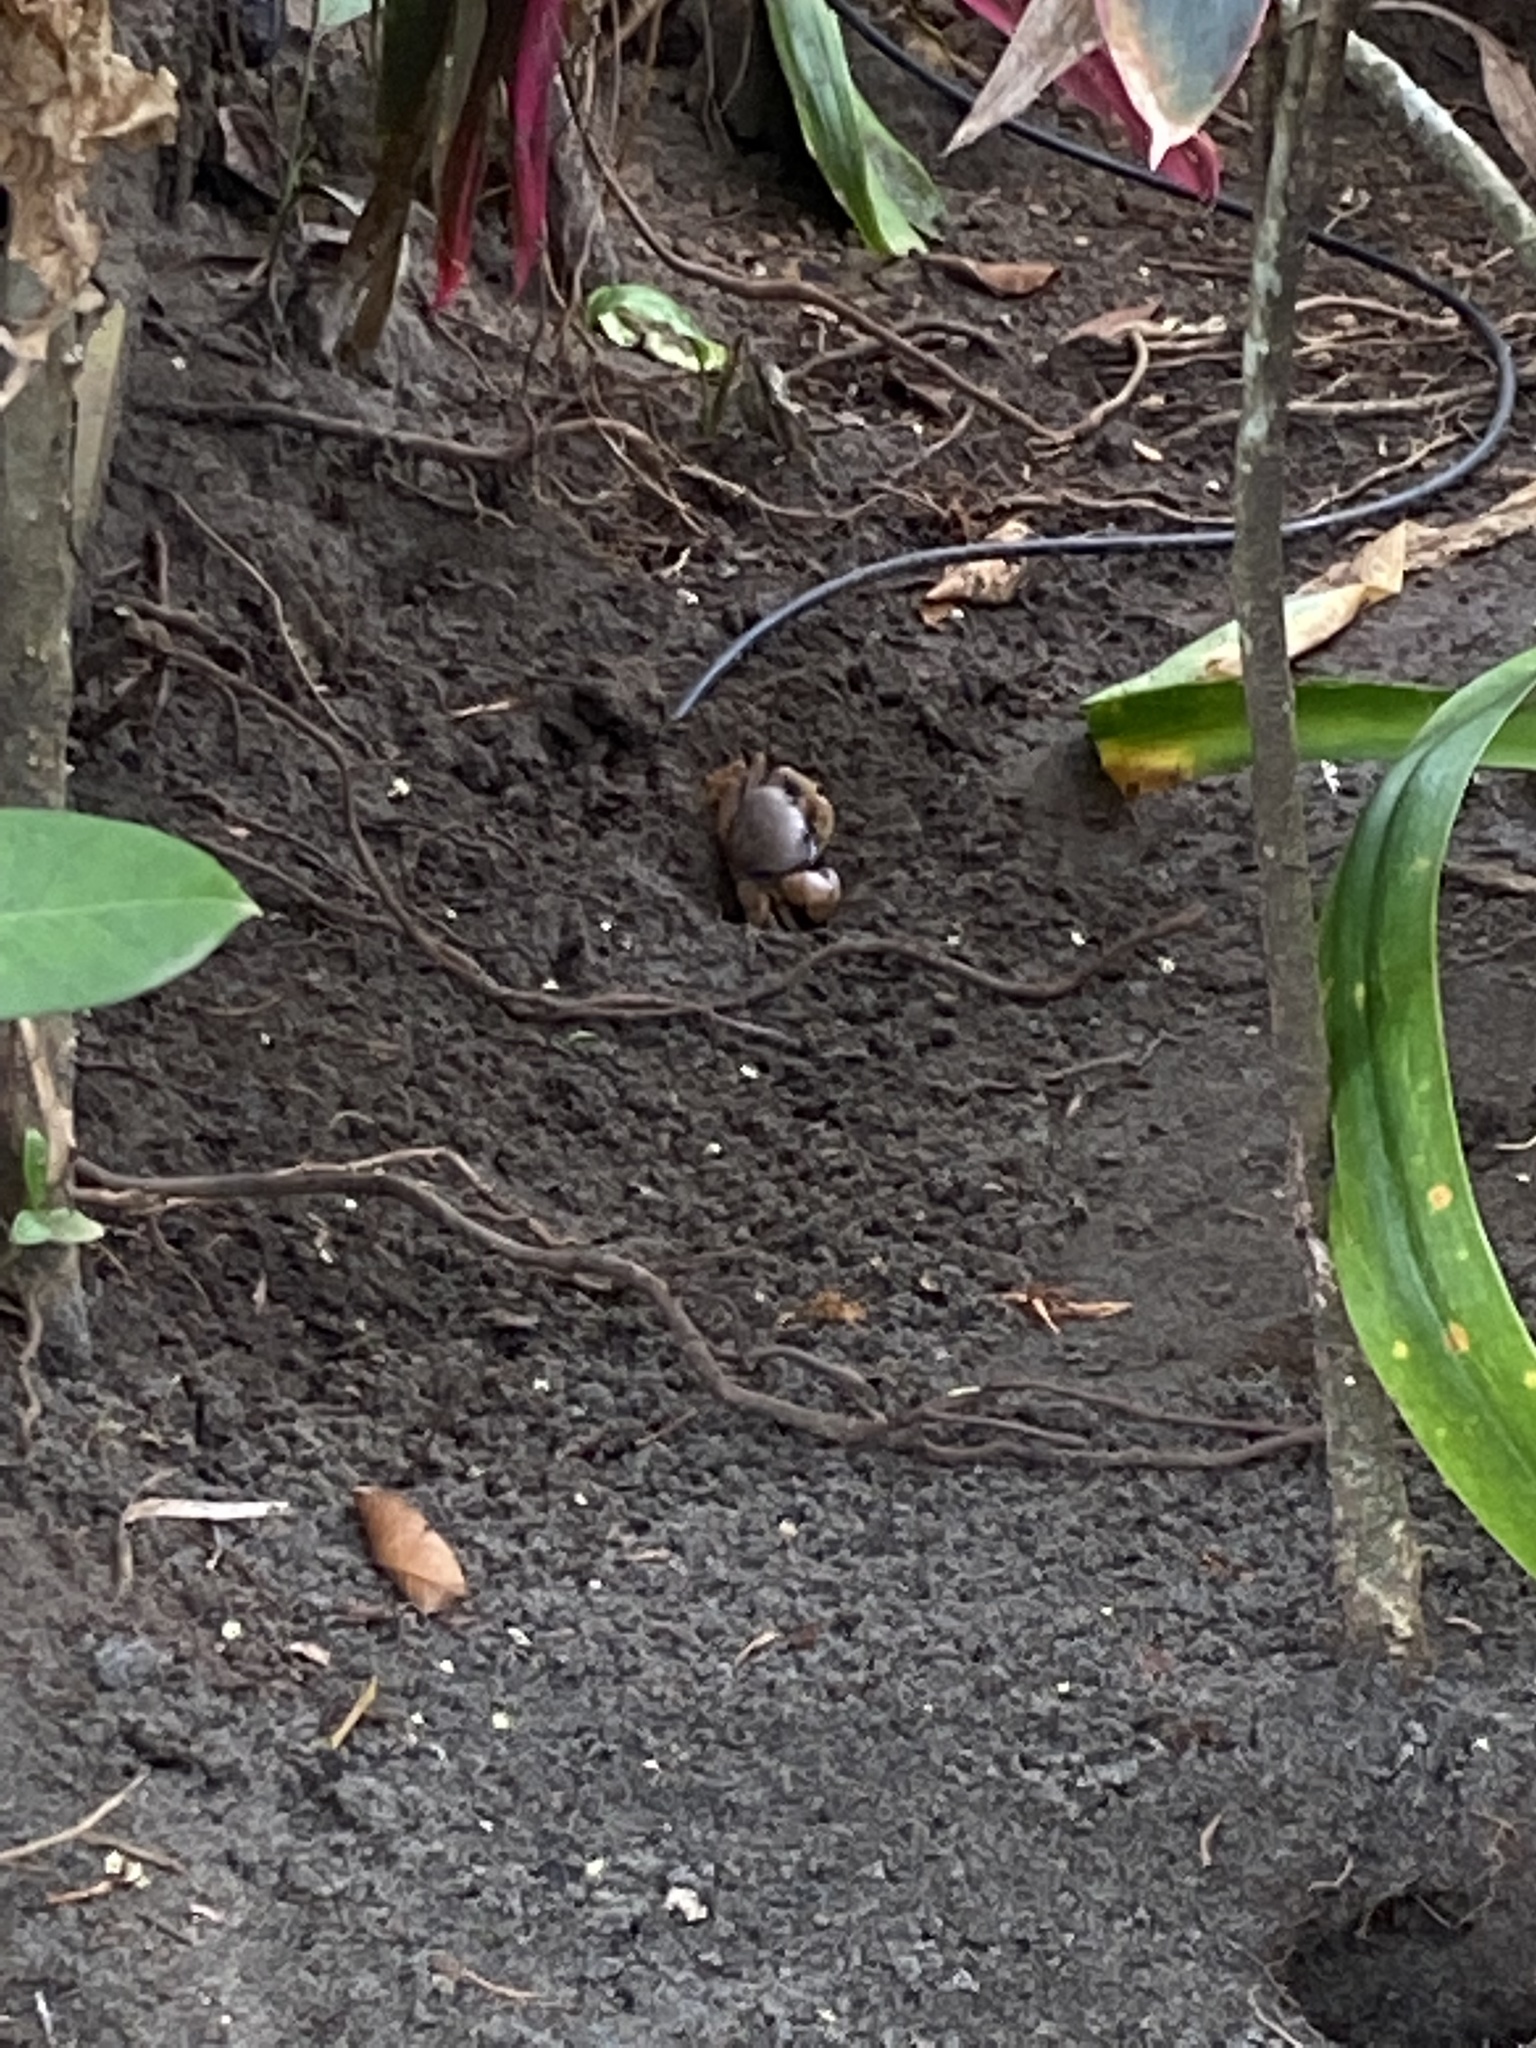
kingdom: Animalia
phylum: Arthropoda
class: Malacostraca
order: Decapoda
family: Gecarcinidae
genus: Cardisoma
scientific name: Cardisoma guanhumi
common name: Great land crab
